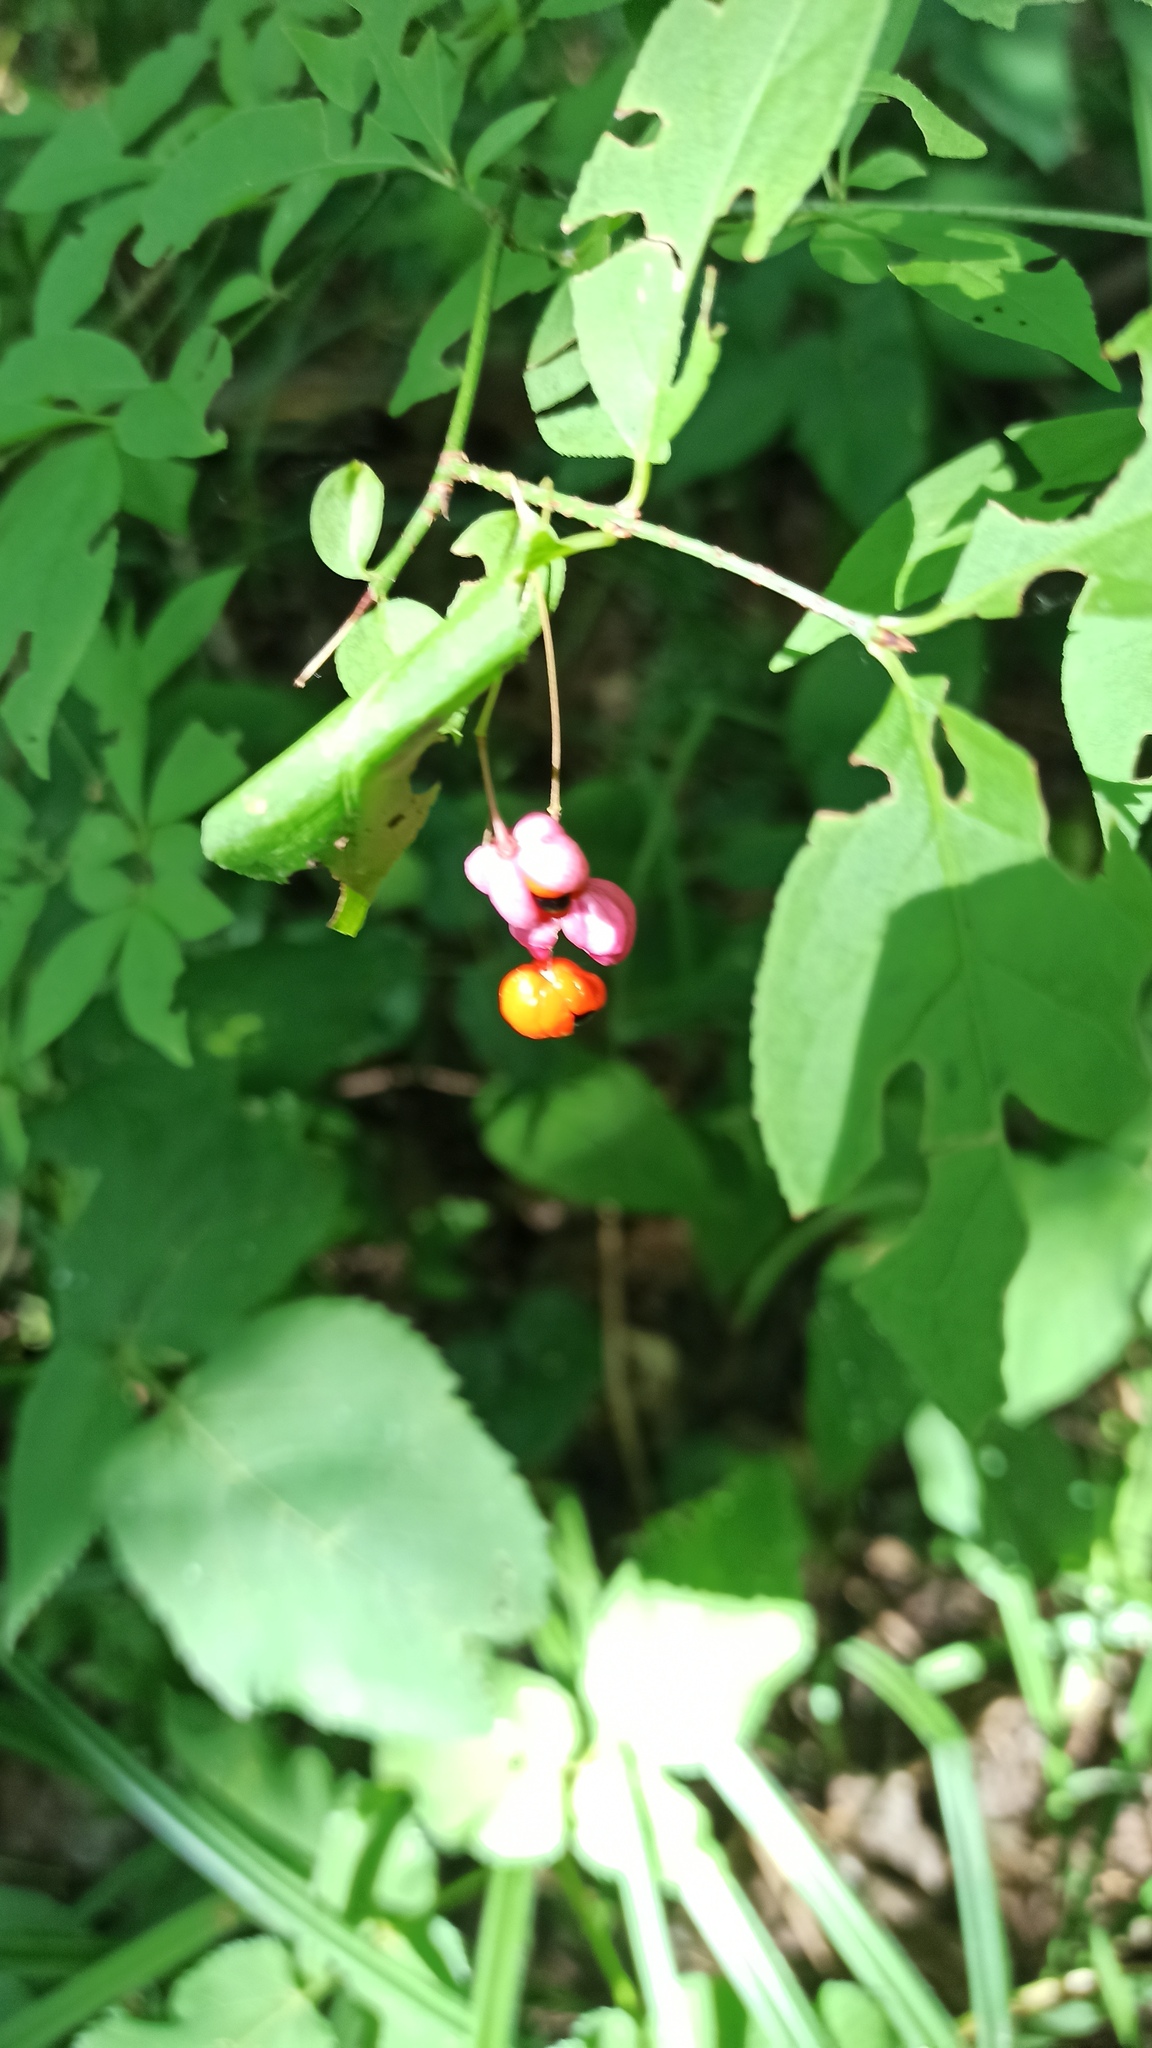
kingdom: Plantae
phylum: Tracheophyta
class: Magnoliopsida
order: Celastrales
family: Celastraceae
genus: Euonymus
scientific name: Euonymus verrucosus
